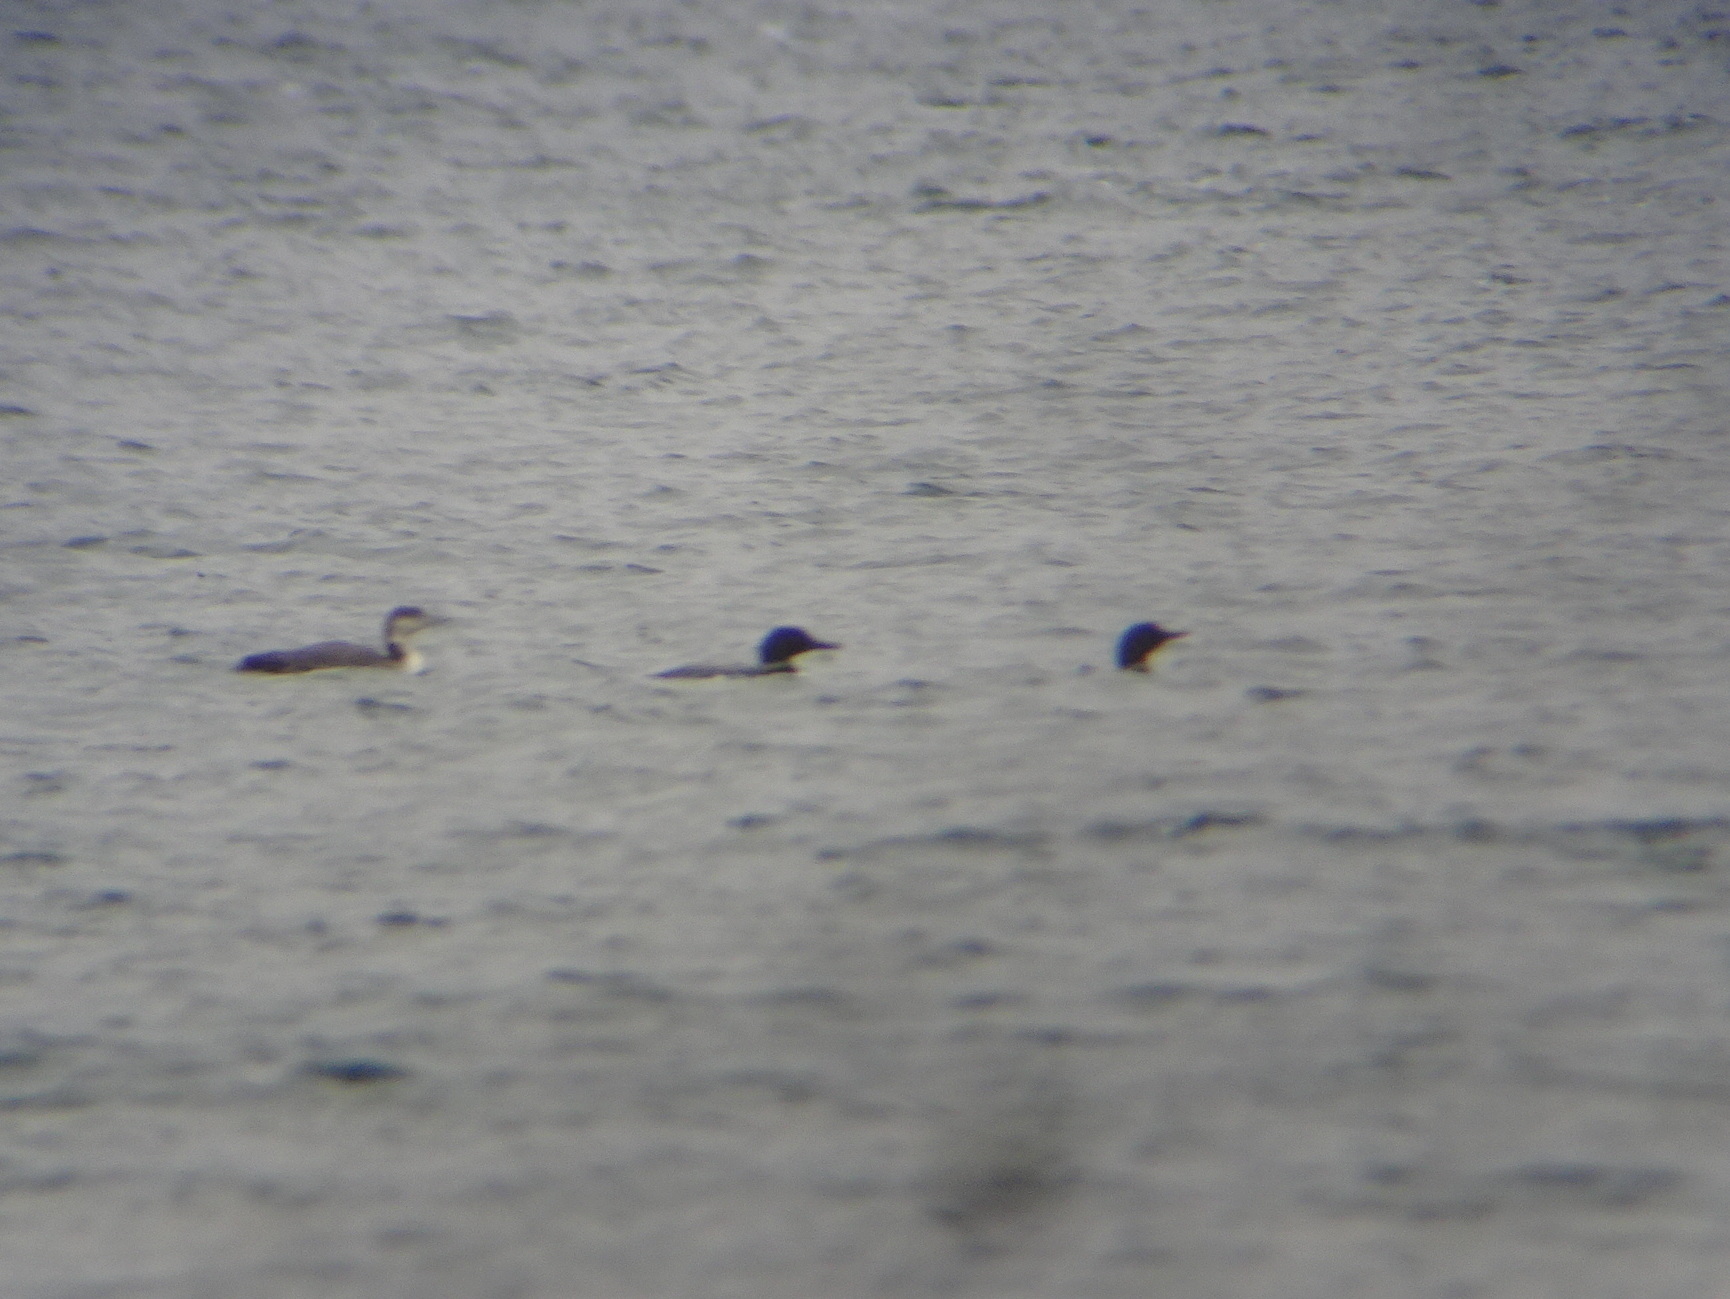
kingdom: Animalia
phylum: Chordata
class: Aves
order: Gaviiformes
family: Gaviidae
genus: Gavia
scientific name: Gavia immer
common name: Common loon
